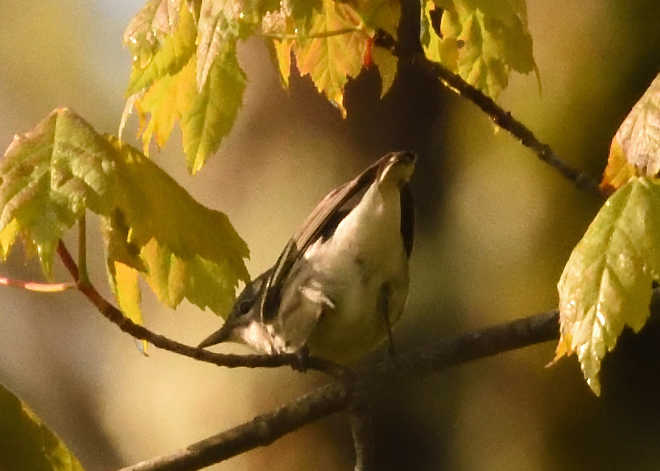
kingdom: Animalia
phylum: Chordata
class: Aves
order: Passeriformes
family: Parulidae
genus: Setophaga
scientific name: Setophaga cerulea
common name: Cerulean warbler
